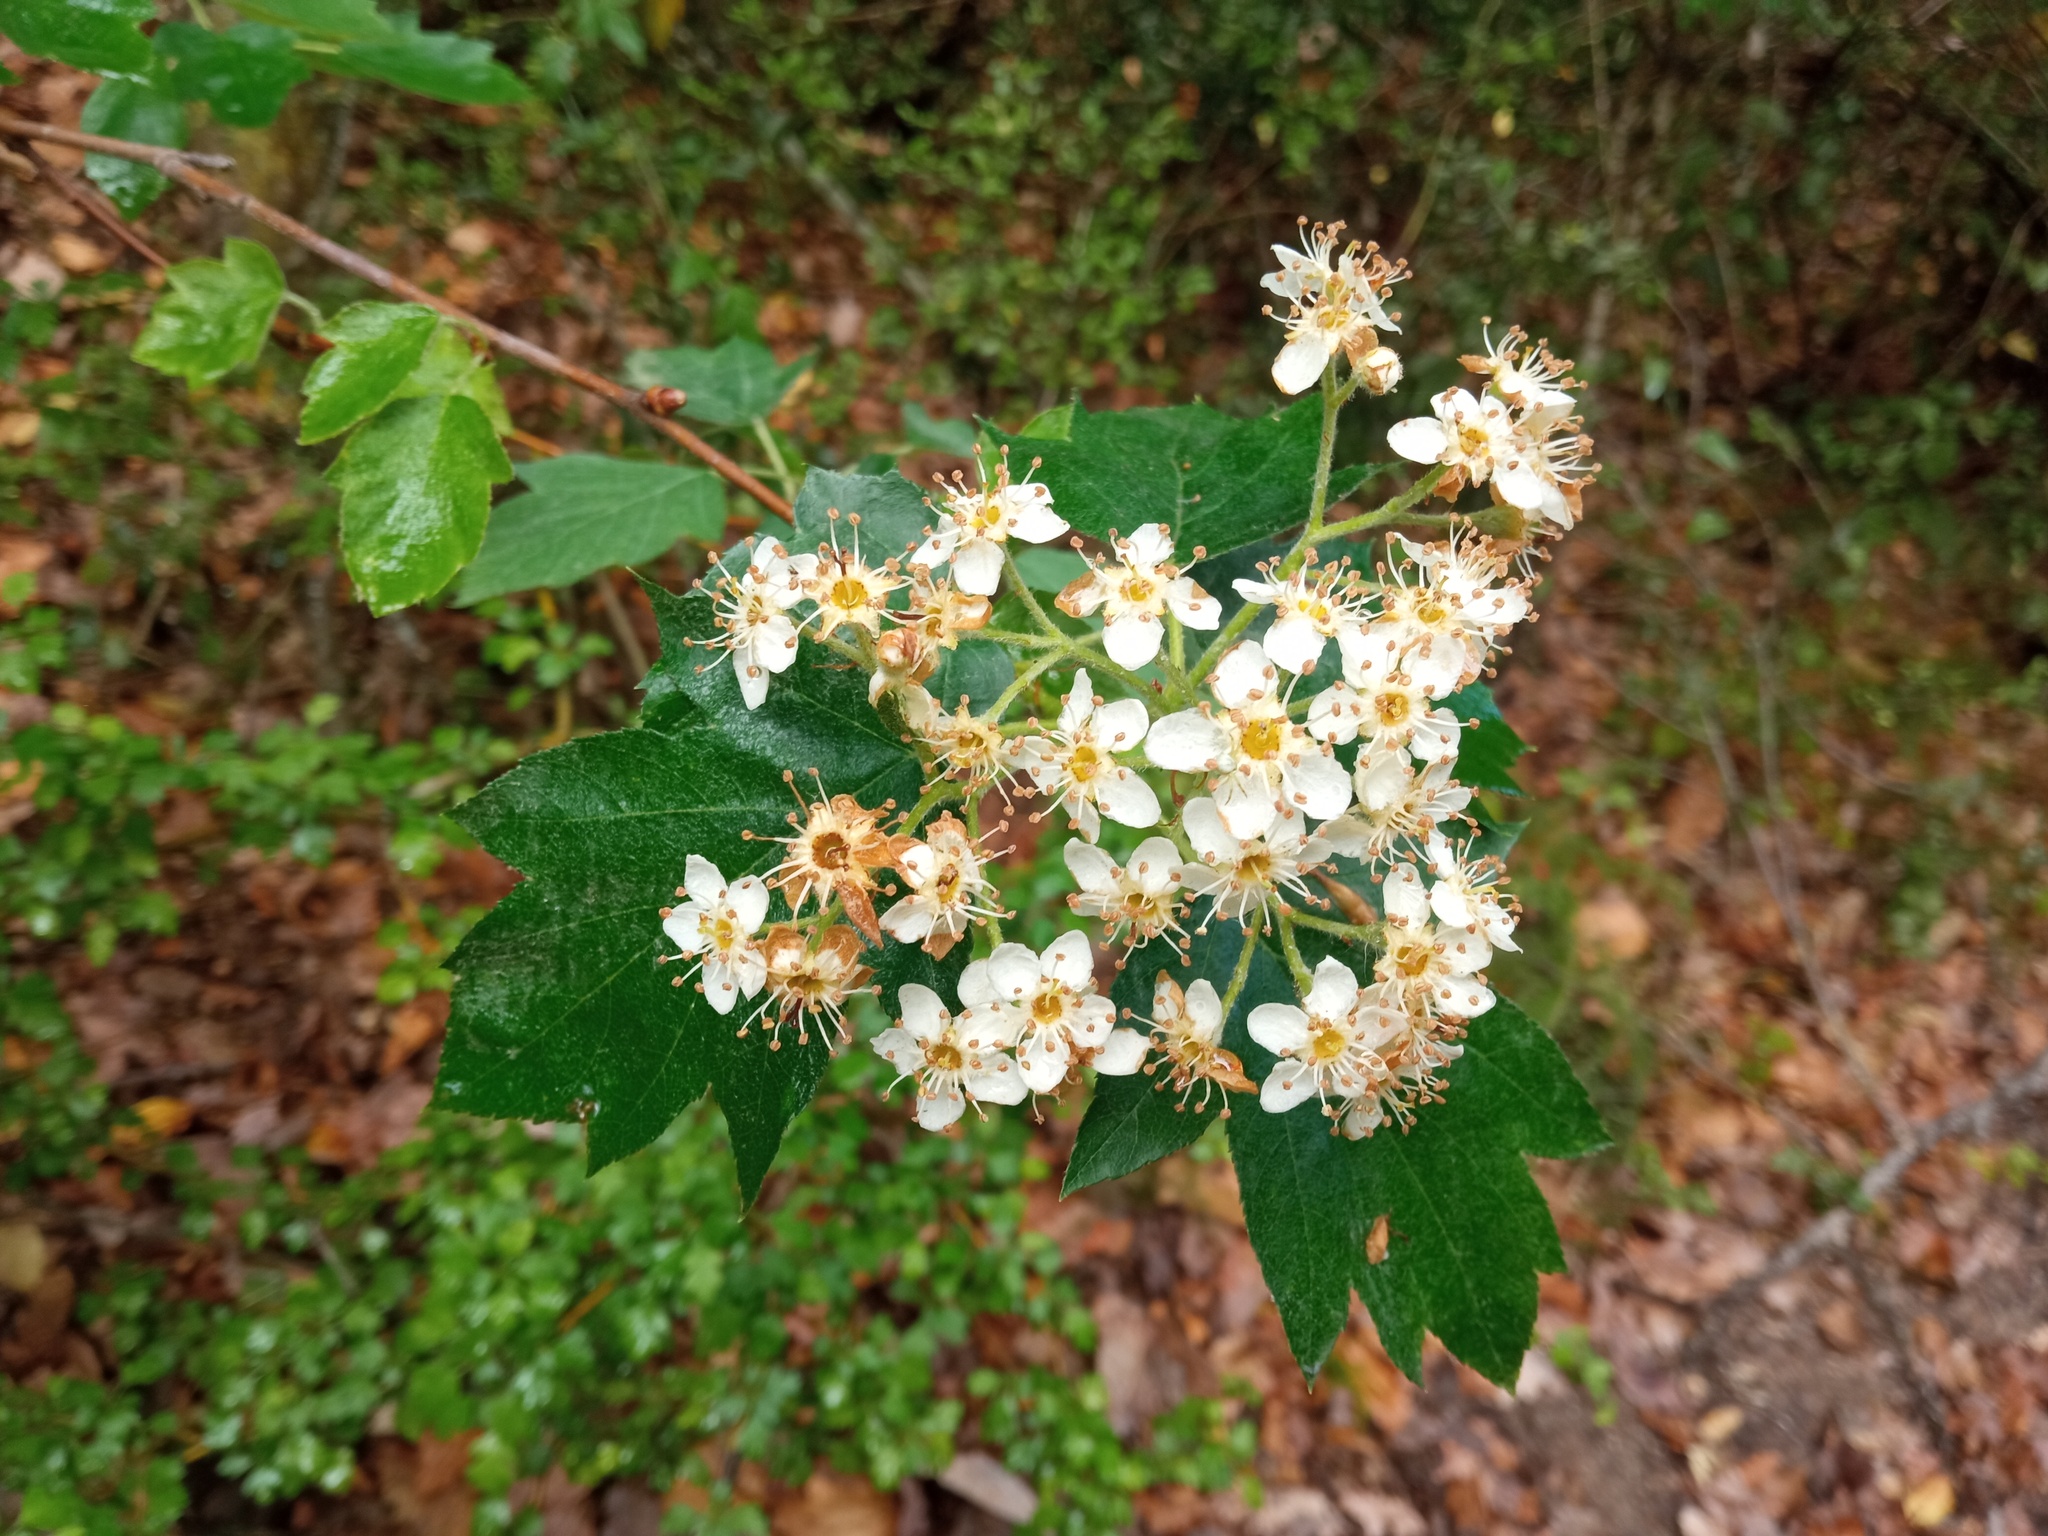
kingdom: Plantae
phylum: Tracheophyta
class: Magnoliopsida
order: Rosales
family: Rosaceae
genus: Torminalis
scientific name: Torminalis glaberrima
